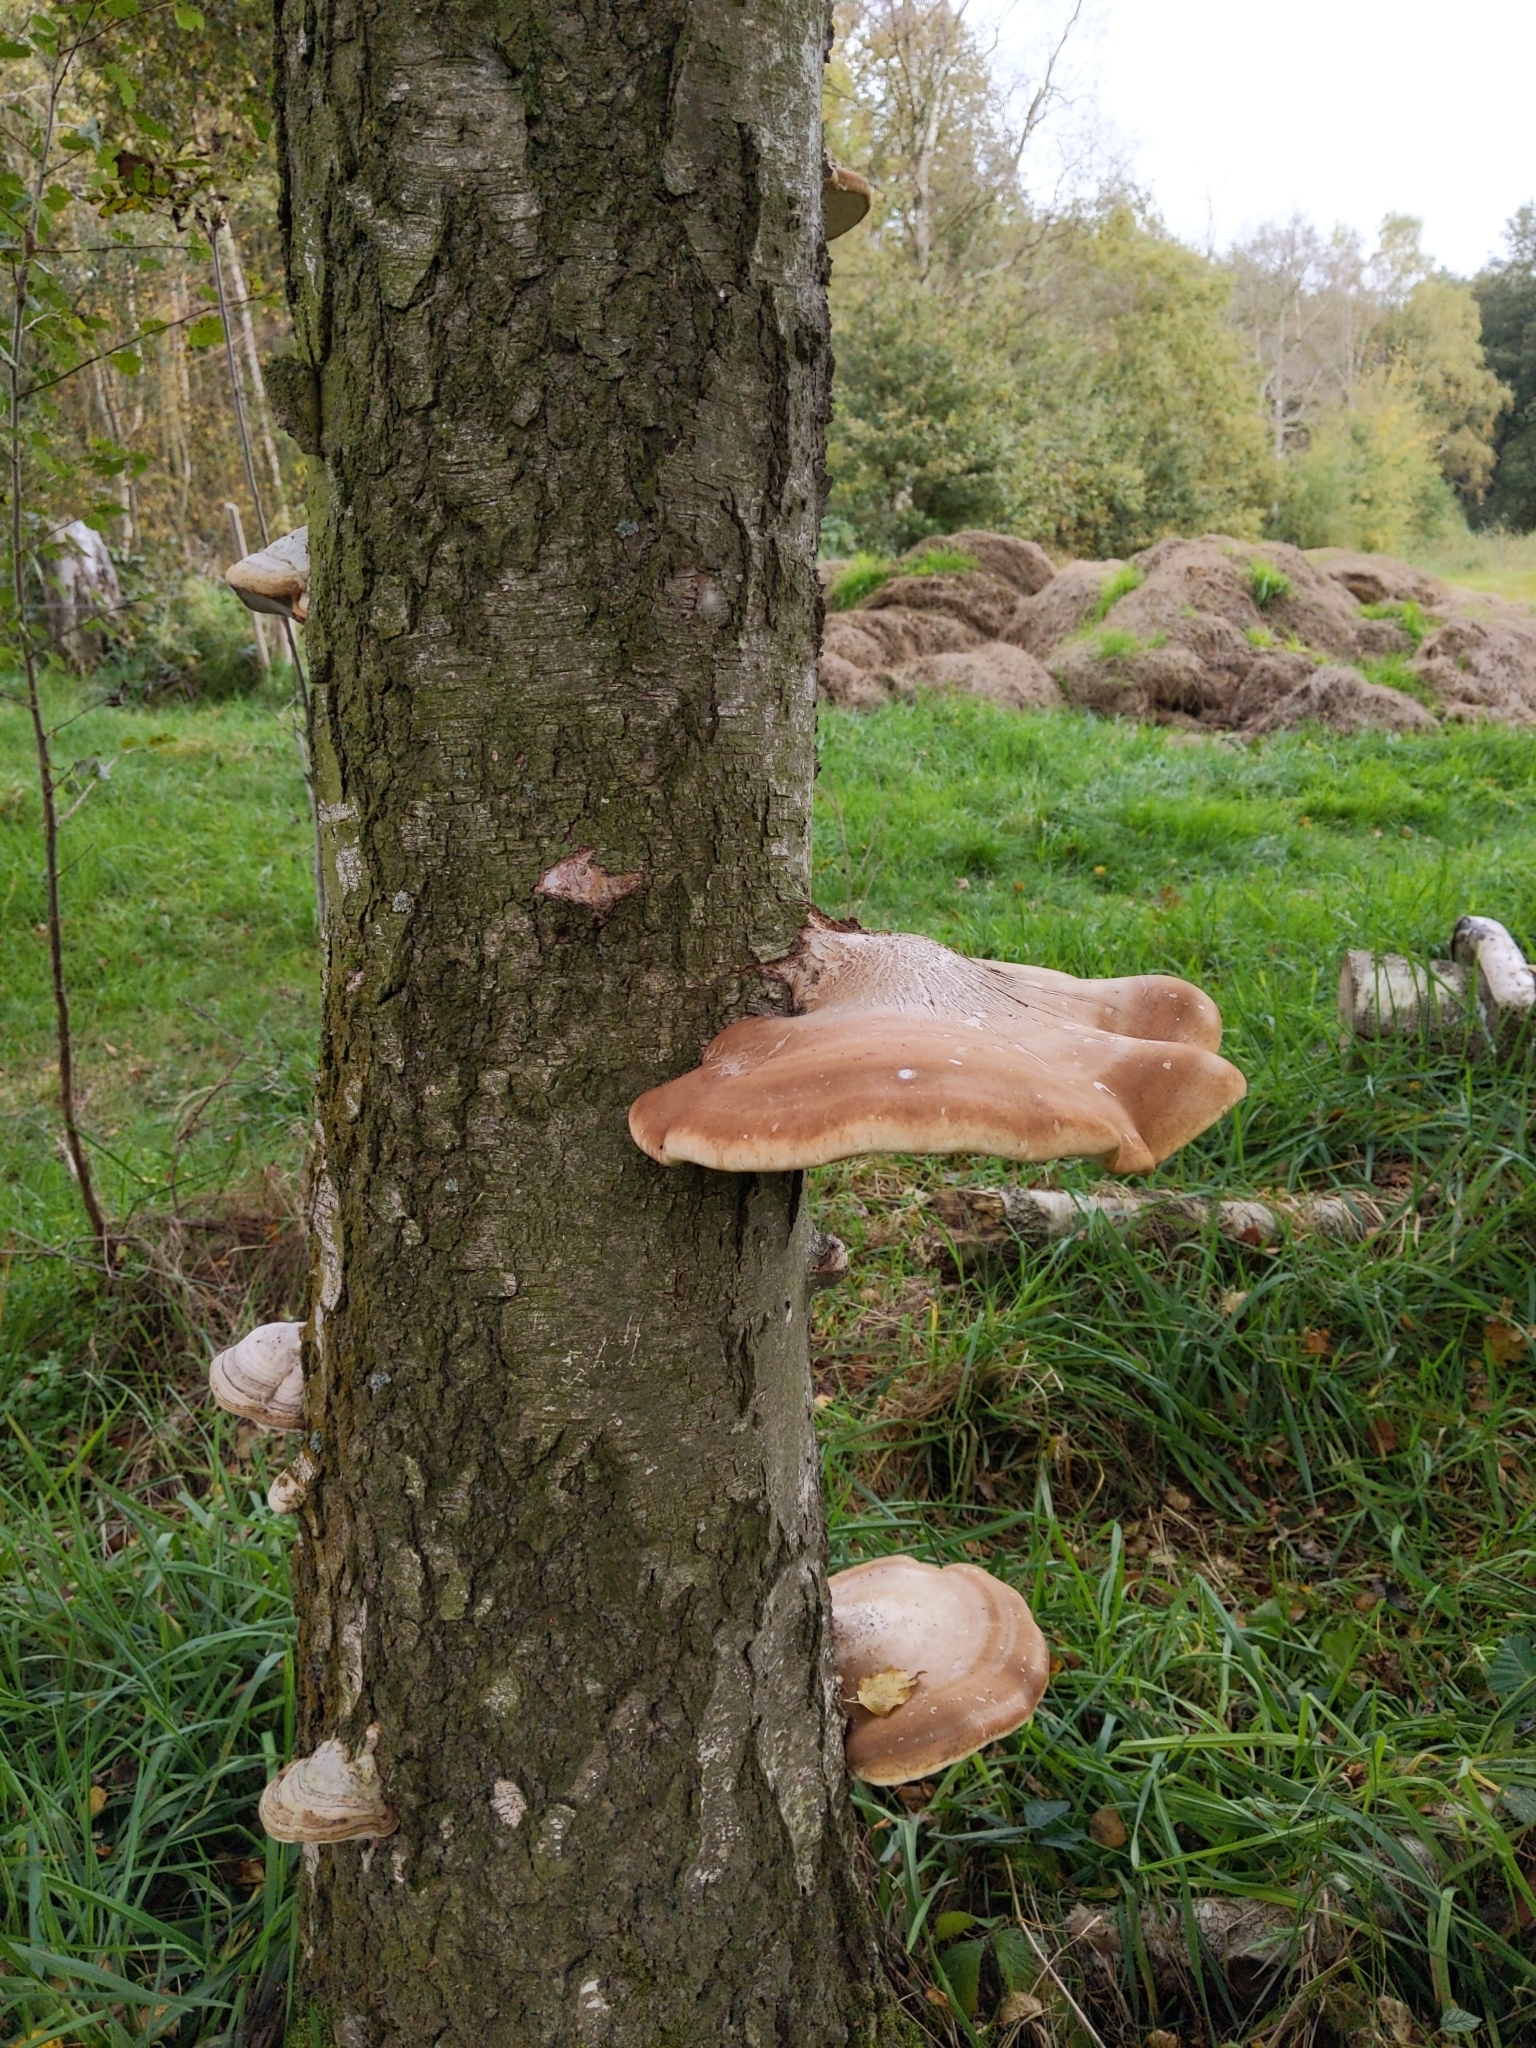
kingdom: Fungi
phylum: Basidiomycota
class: Agaricomycetes
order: Polyporales
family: Fomitopsidaceae
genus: Fomitopsis
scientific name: Fomitopsis betulina
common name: Birch polypore
